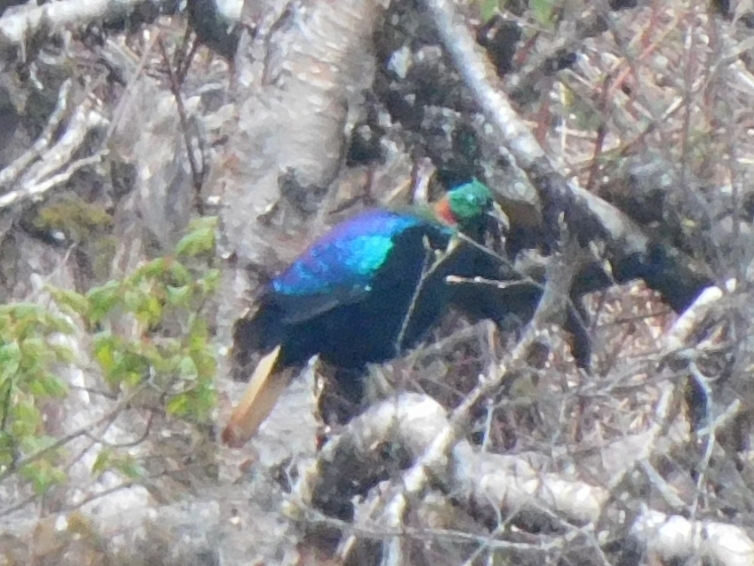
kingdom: Animalia
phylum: Chordata
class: Aves
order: Galliformes
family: Phasianidae
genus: Lophophorus
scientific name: Lophophorus impejanus
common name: Himalayan monal
